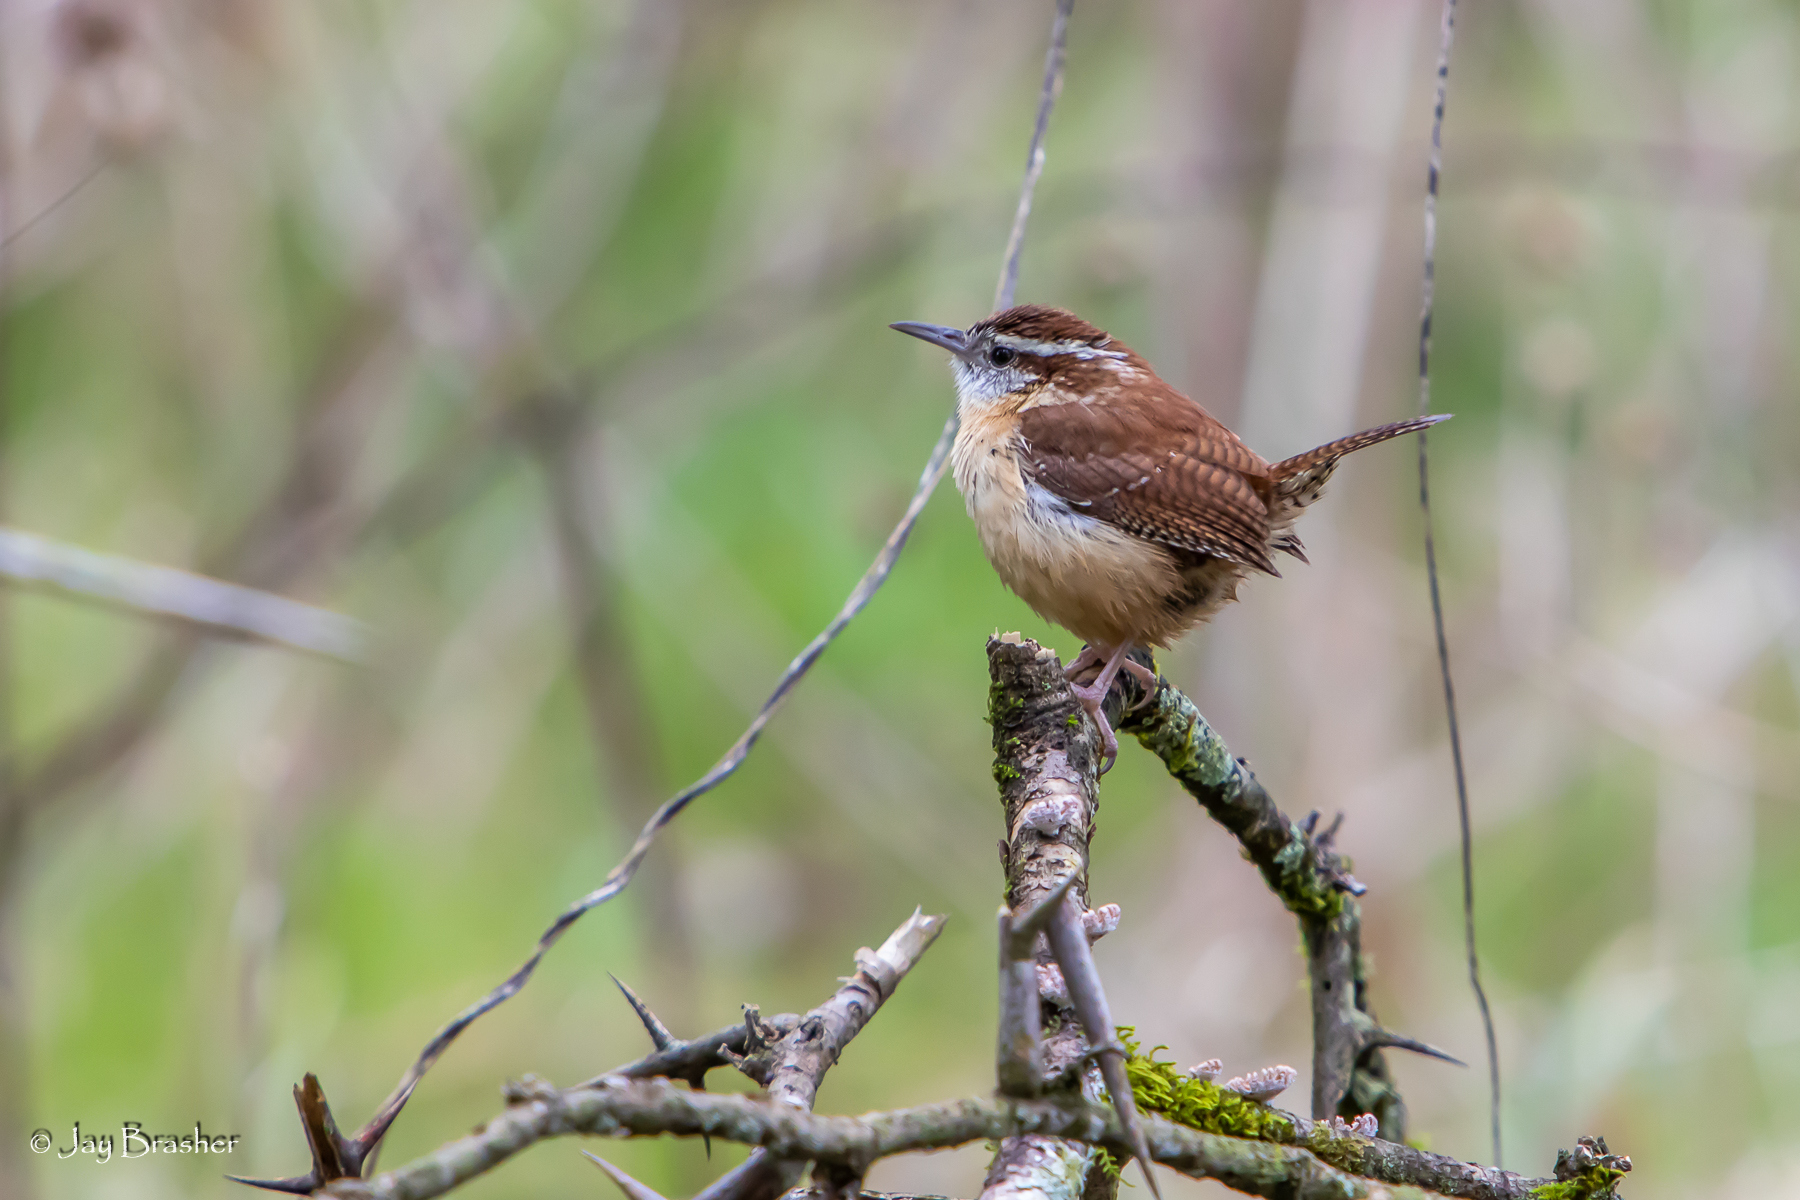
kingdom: Animalia
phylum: Chordata
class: Aves
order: Passeriformes
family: Troglodytidae
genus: Thryothorus
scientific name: Thryothorus ludovicianus
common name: Carolina wren
